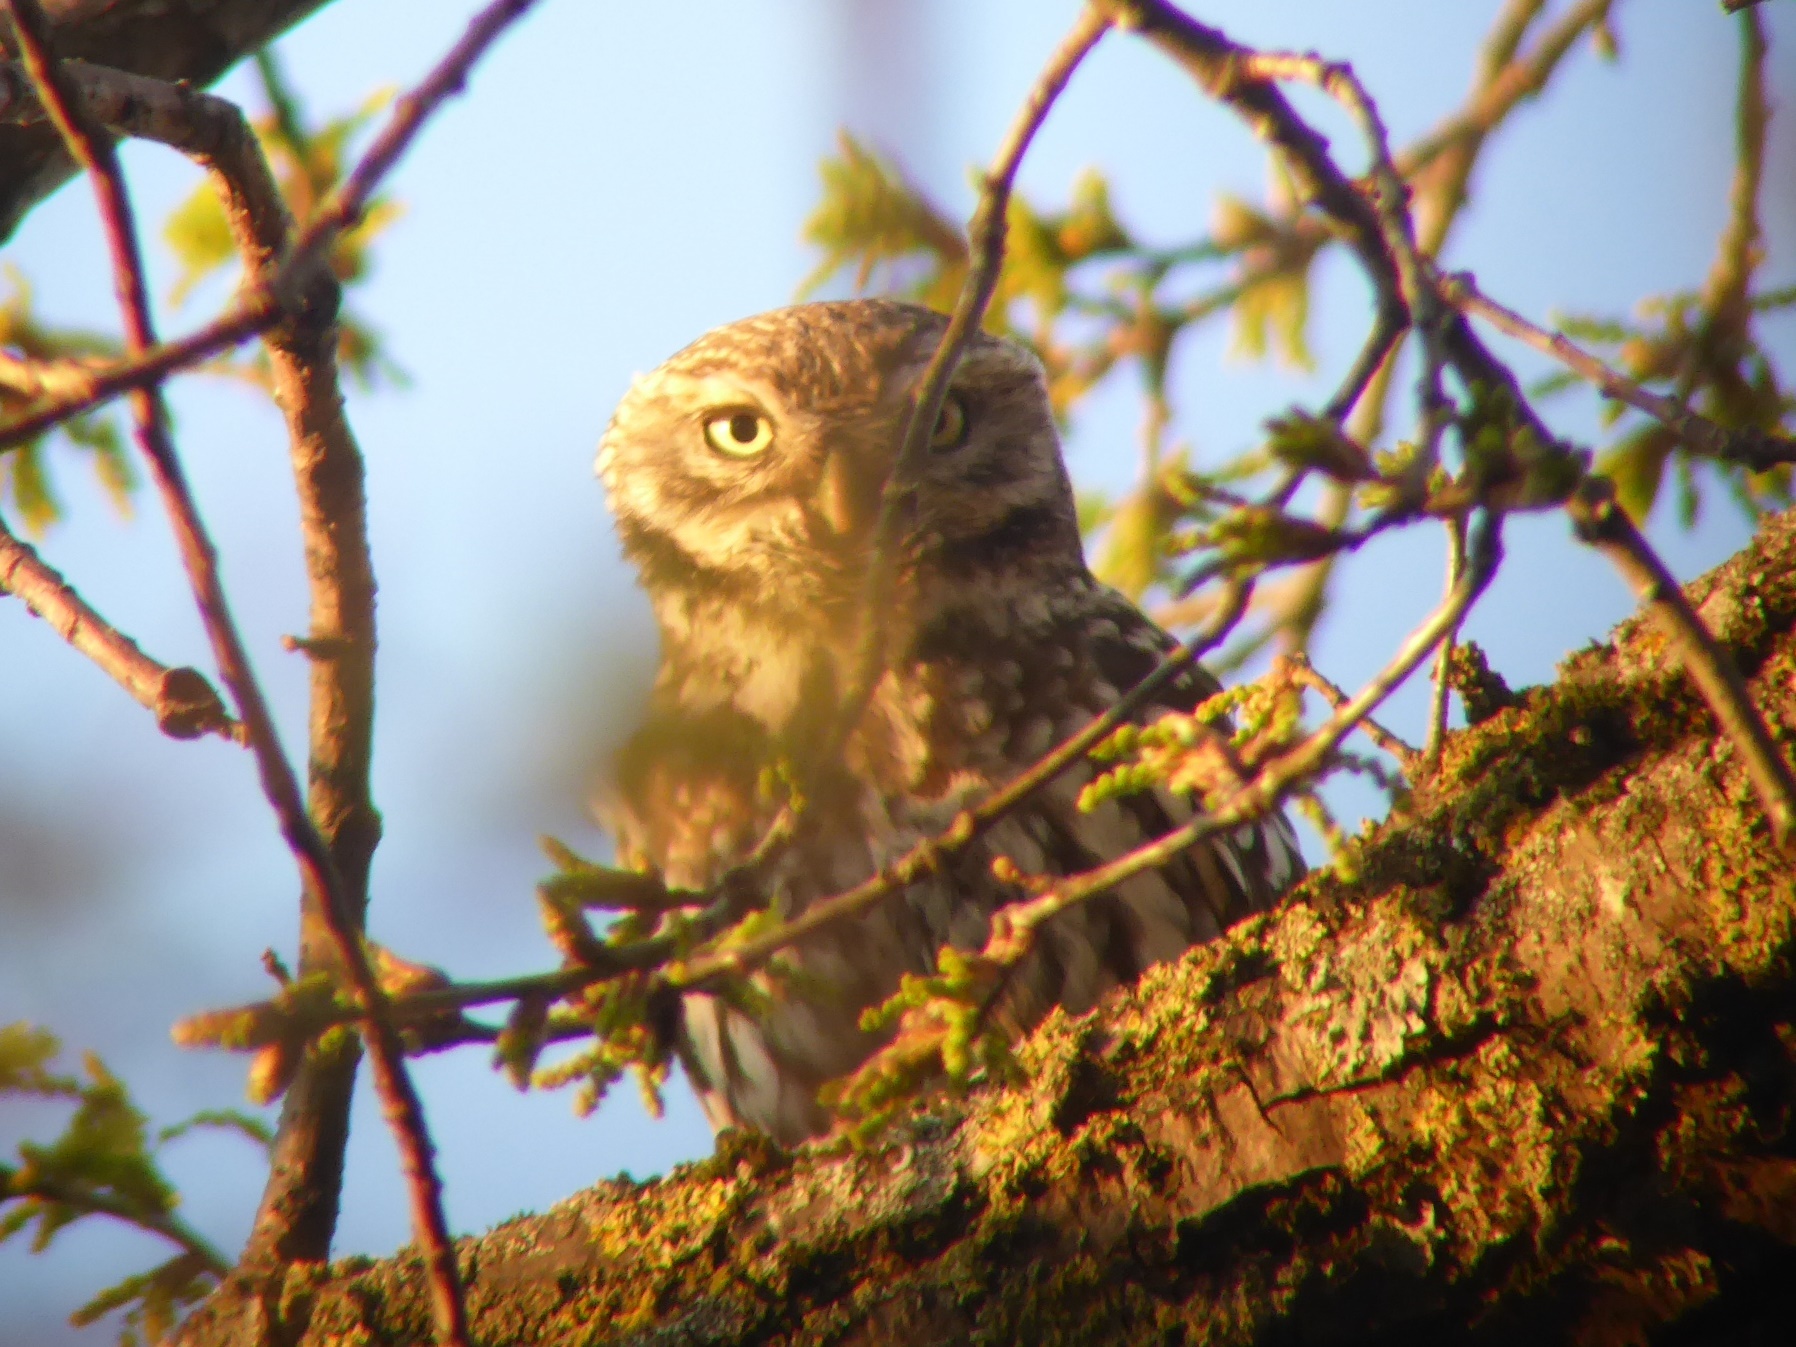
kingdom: Animalia
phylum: Chordata
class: Aves
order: Strigiformes
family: Strigidae
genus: Athene
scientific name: Athene noctua
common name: Little owl
